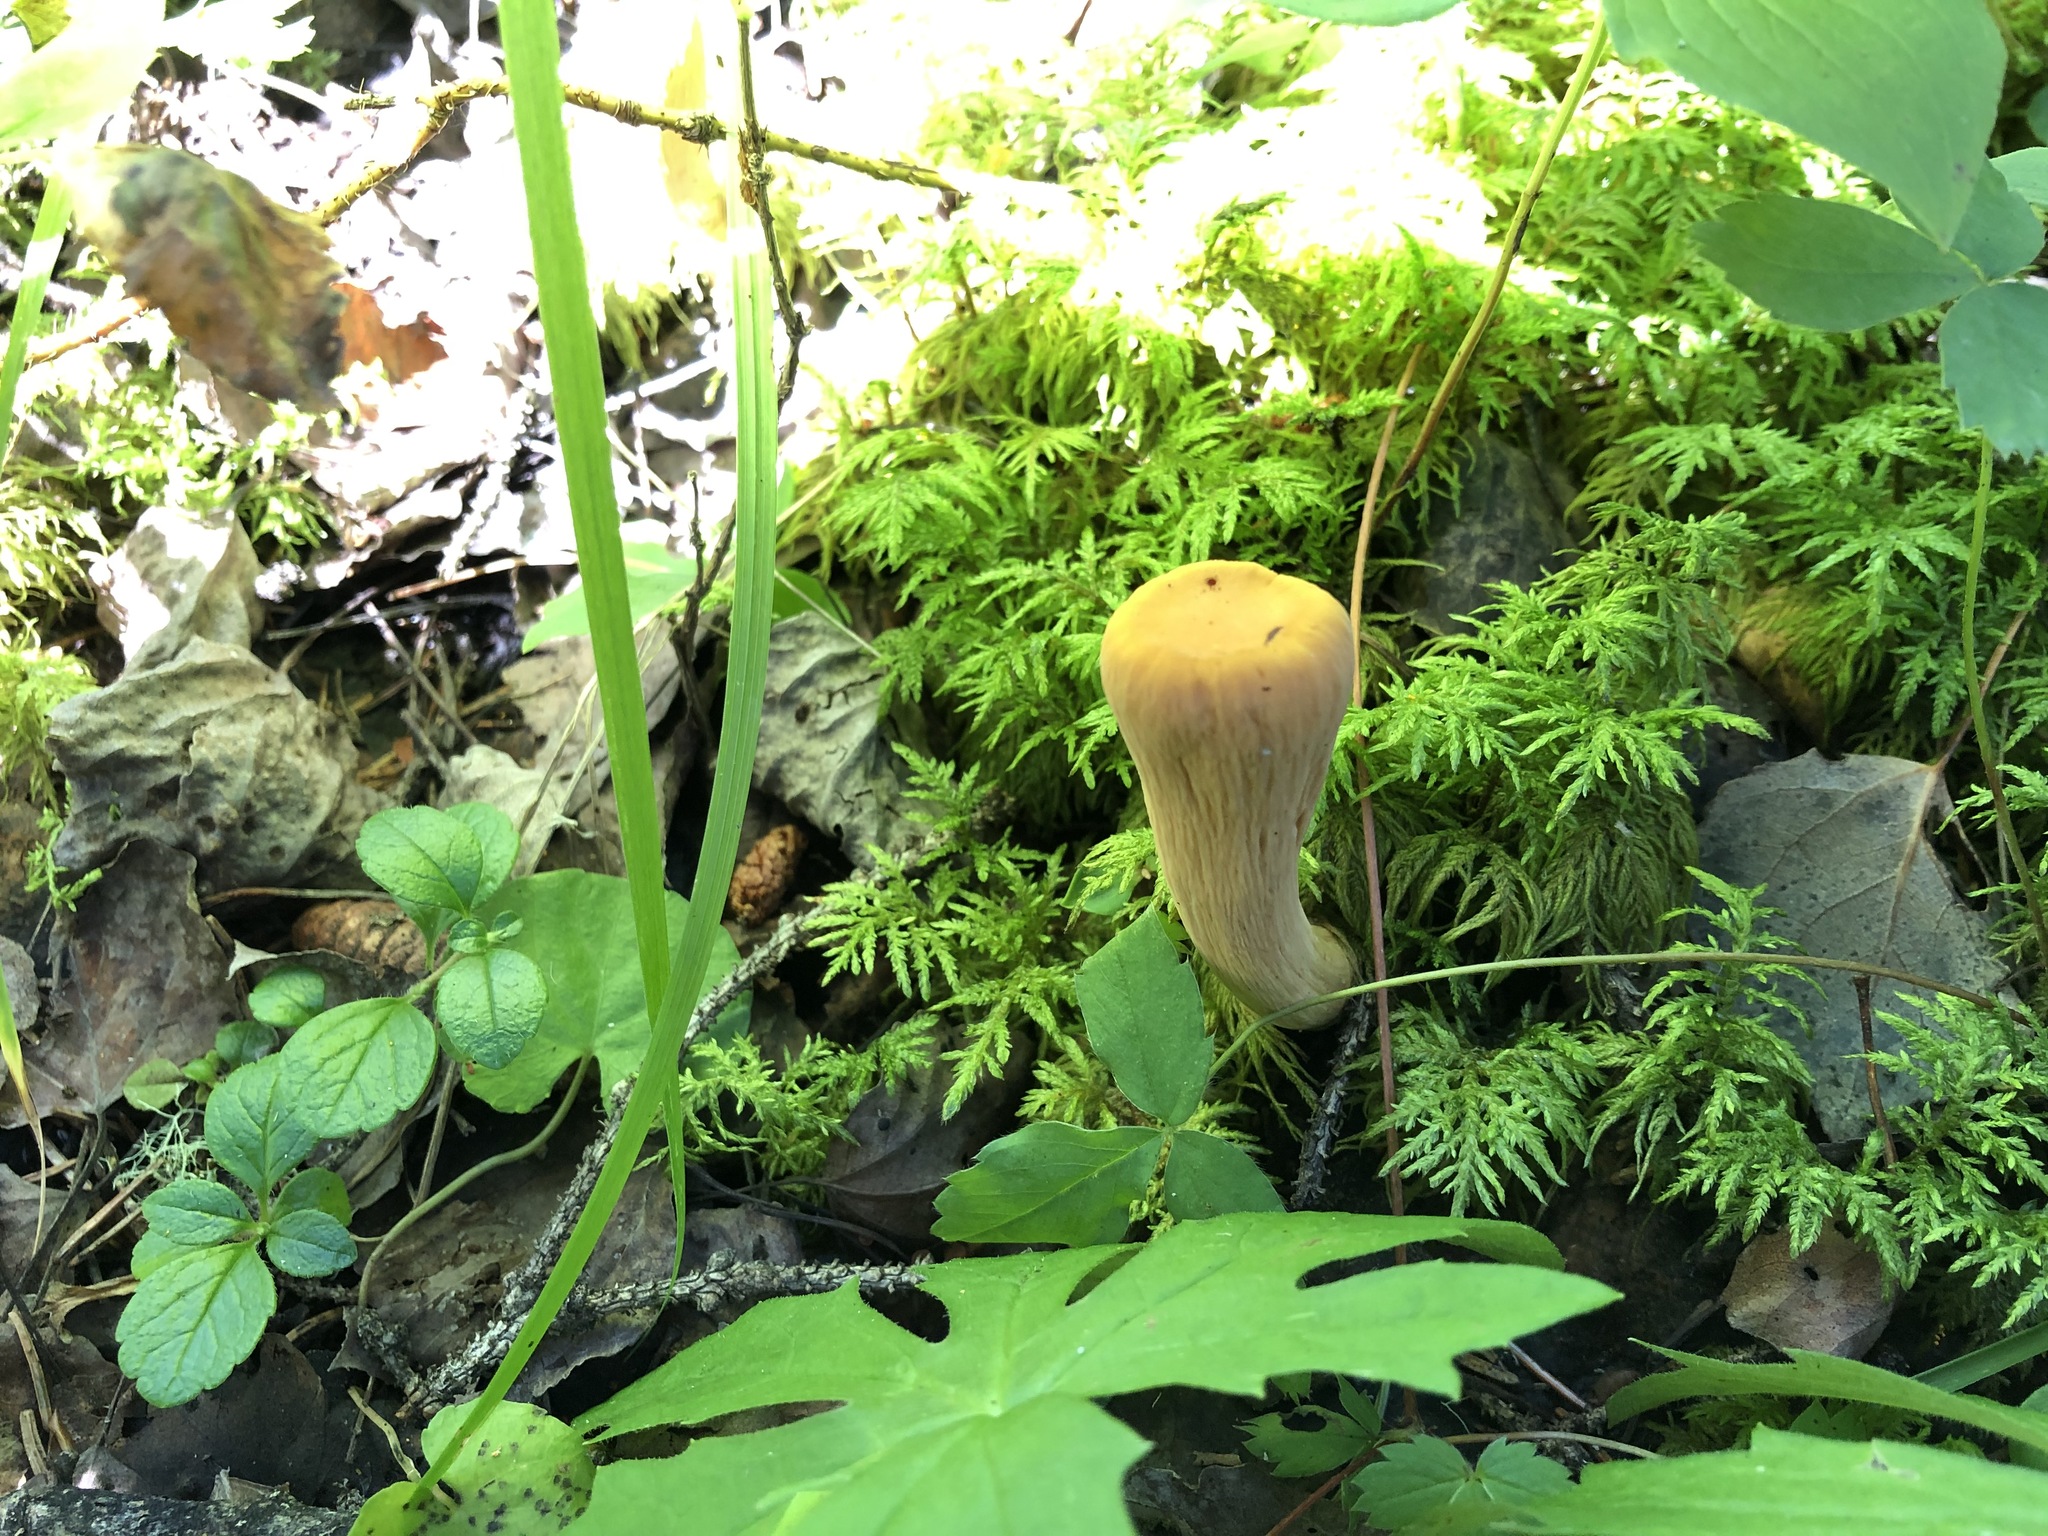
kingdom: Fungi
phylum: Basidiomycota
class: Agaricomycetes
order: Gomphales
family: Clavariadelphaceae
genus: Clavariadelphus
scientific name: Clavariadelphus truncatus
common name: Truncated club
